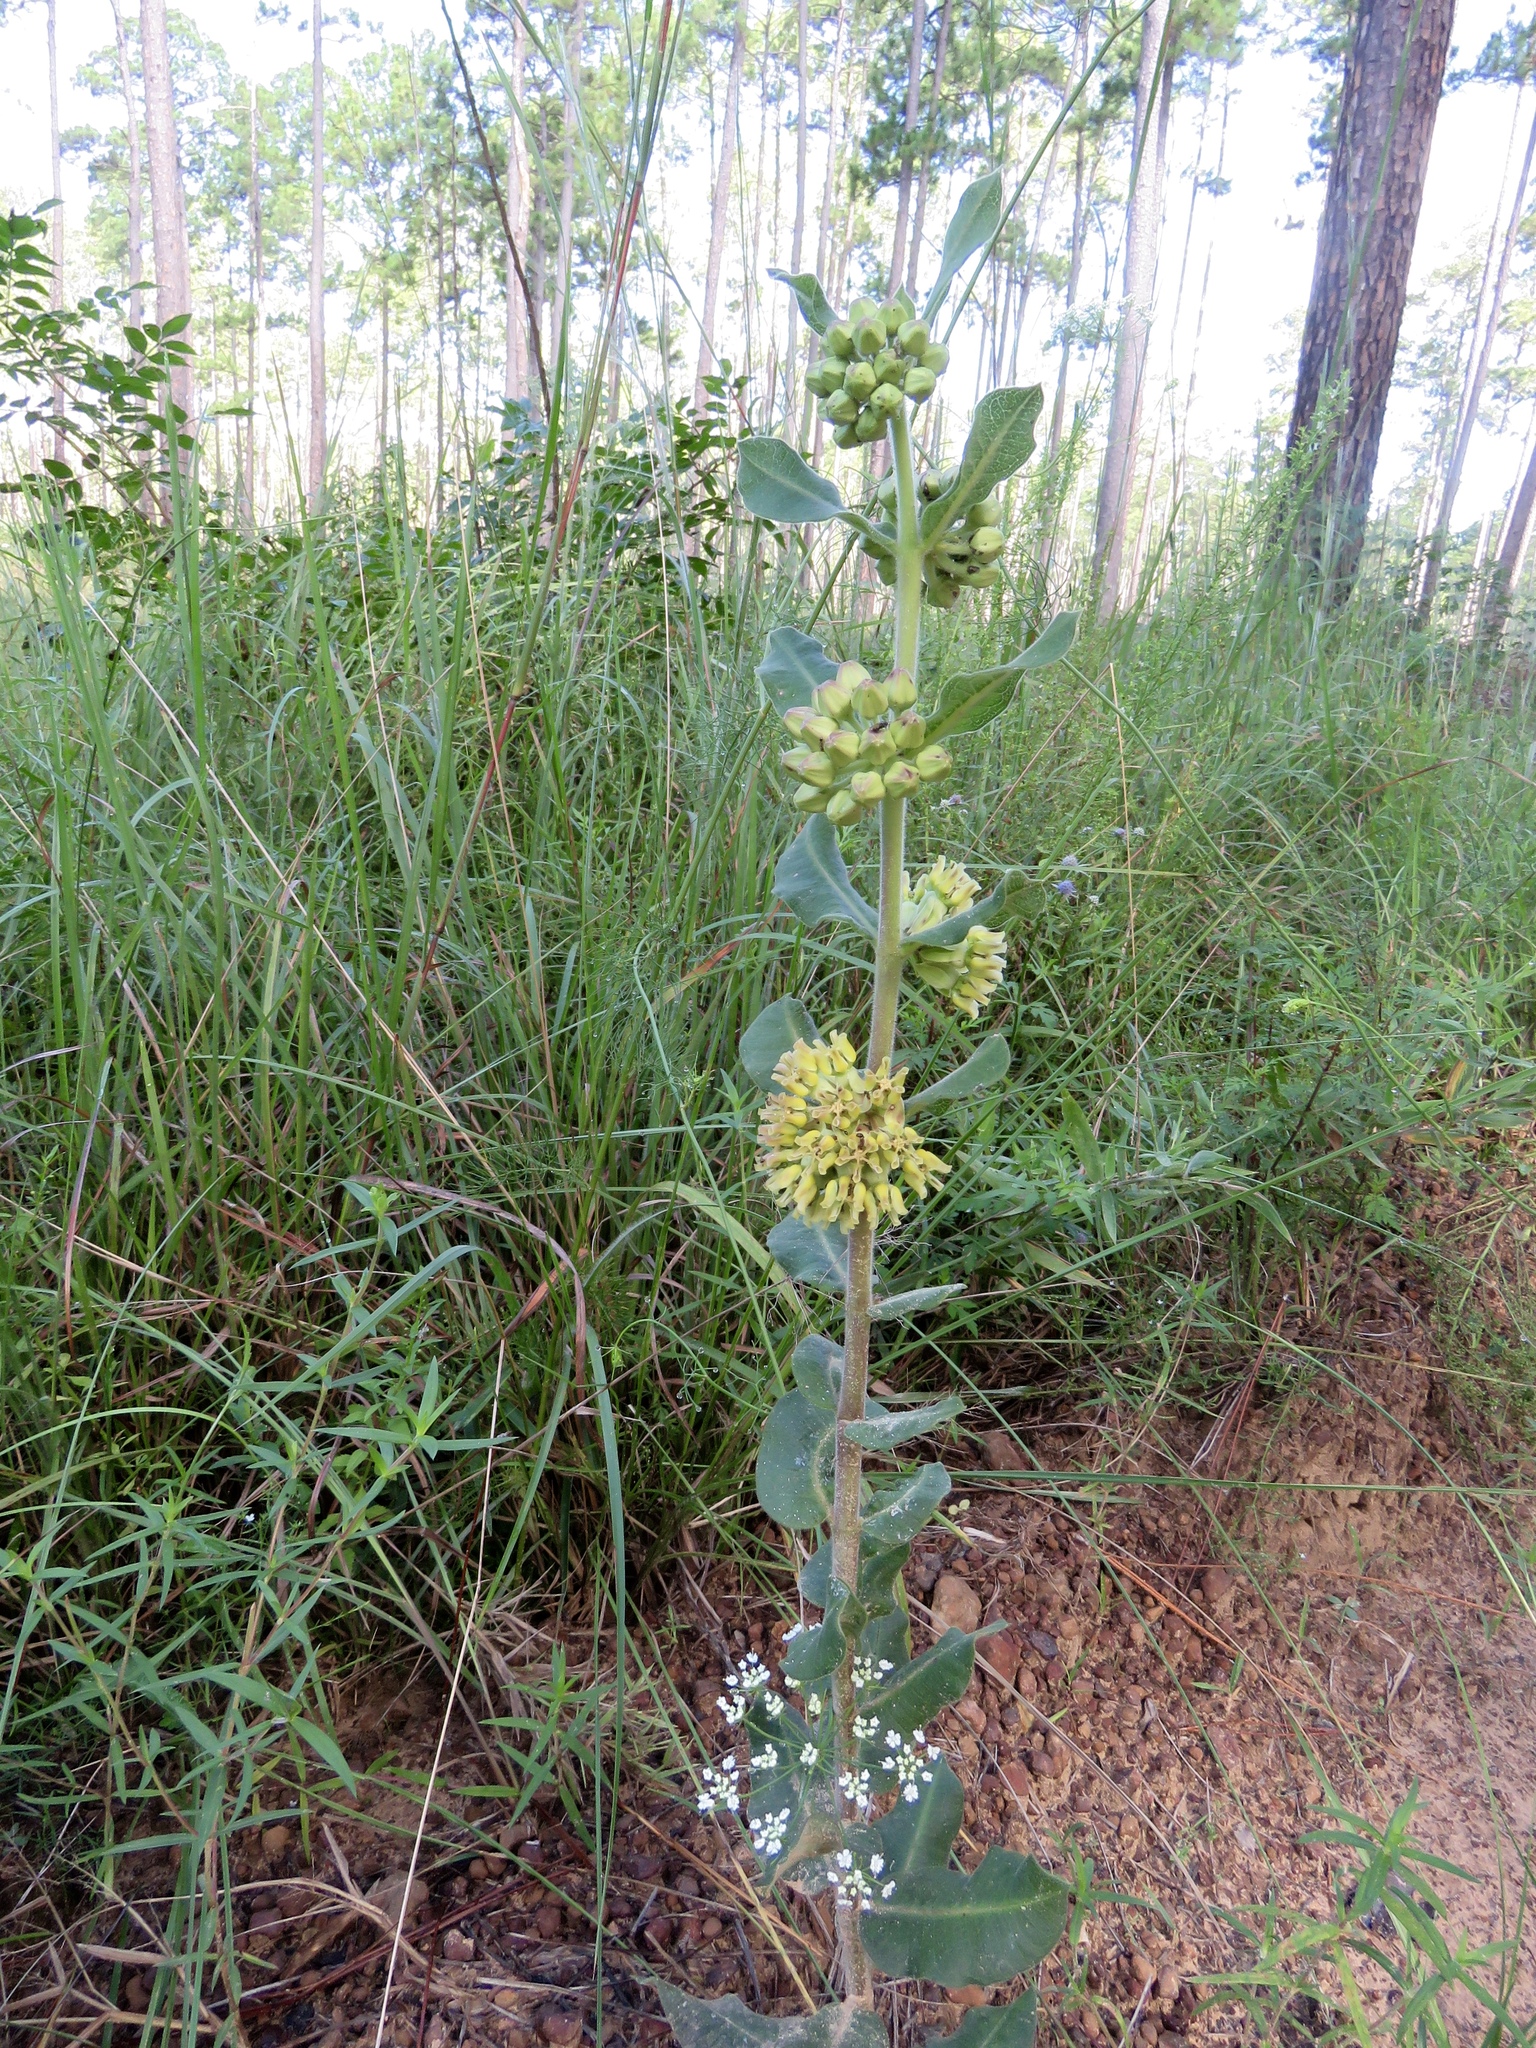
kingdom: Plantae
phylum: Tracheophyta
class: Magnoliopsida
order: Gentianales
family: Apocynaceae
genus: Asclepias
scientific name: Asclepias obovata
